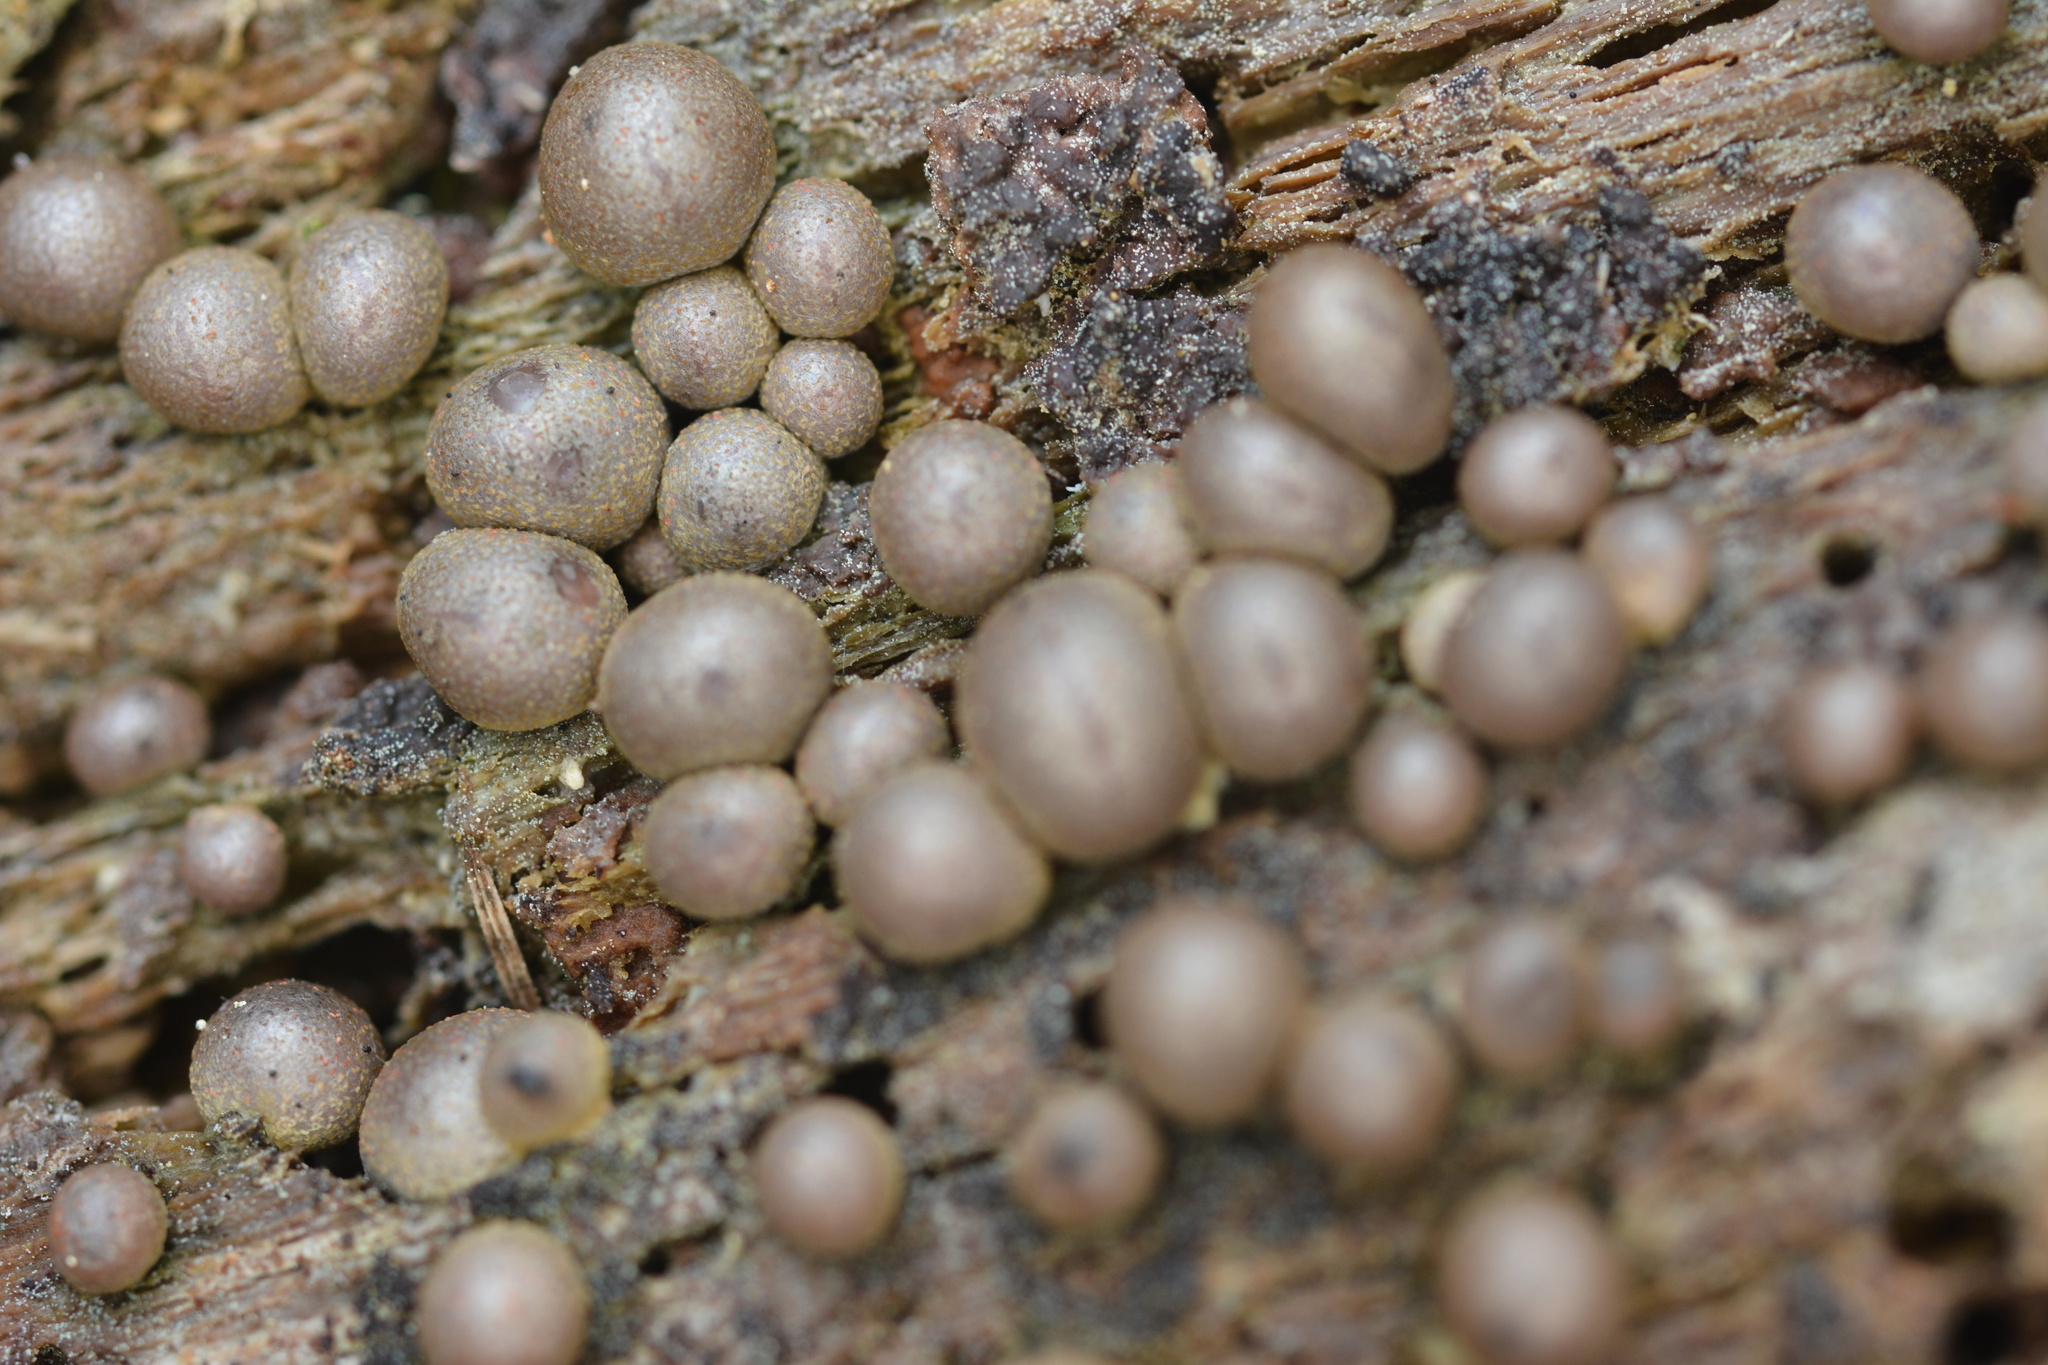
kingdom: Protozoa
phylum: Mycetozoa
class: Myxomycetes
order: Cribrariales
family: Tubiferaceae
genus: Lycogala
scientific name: Lycogala epidendrum
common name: Wolf's milk
